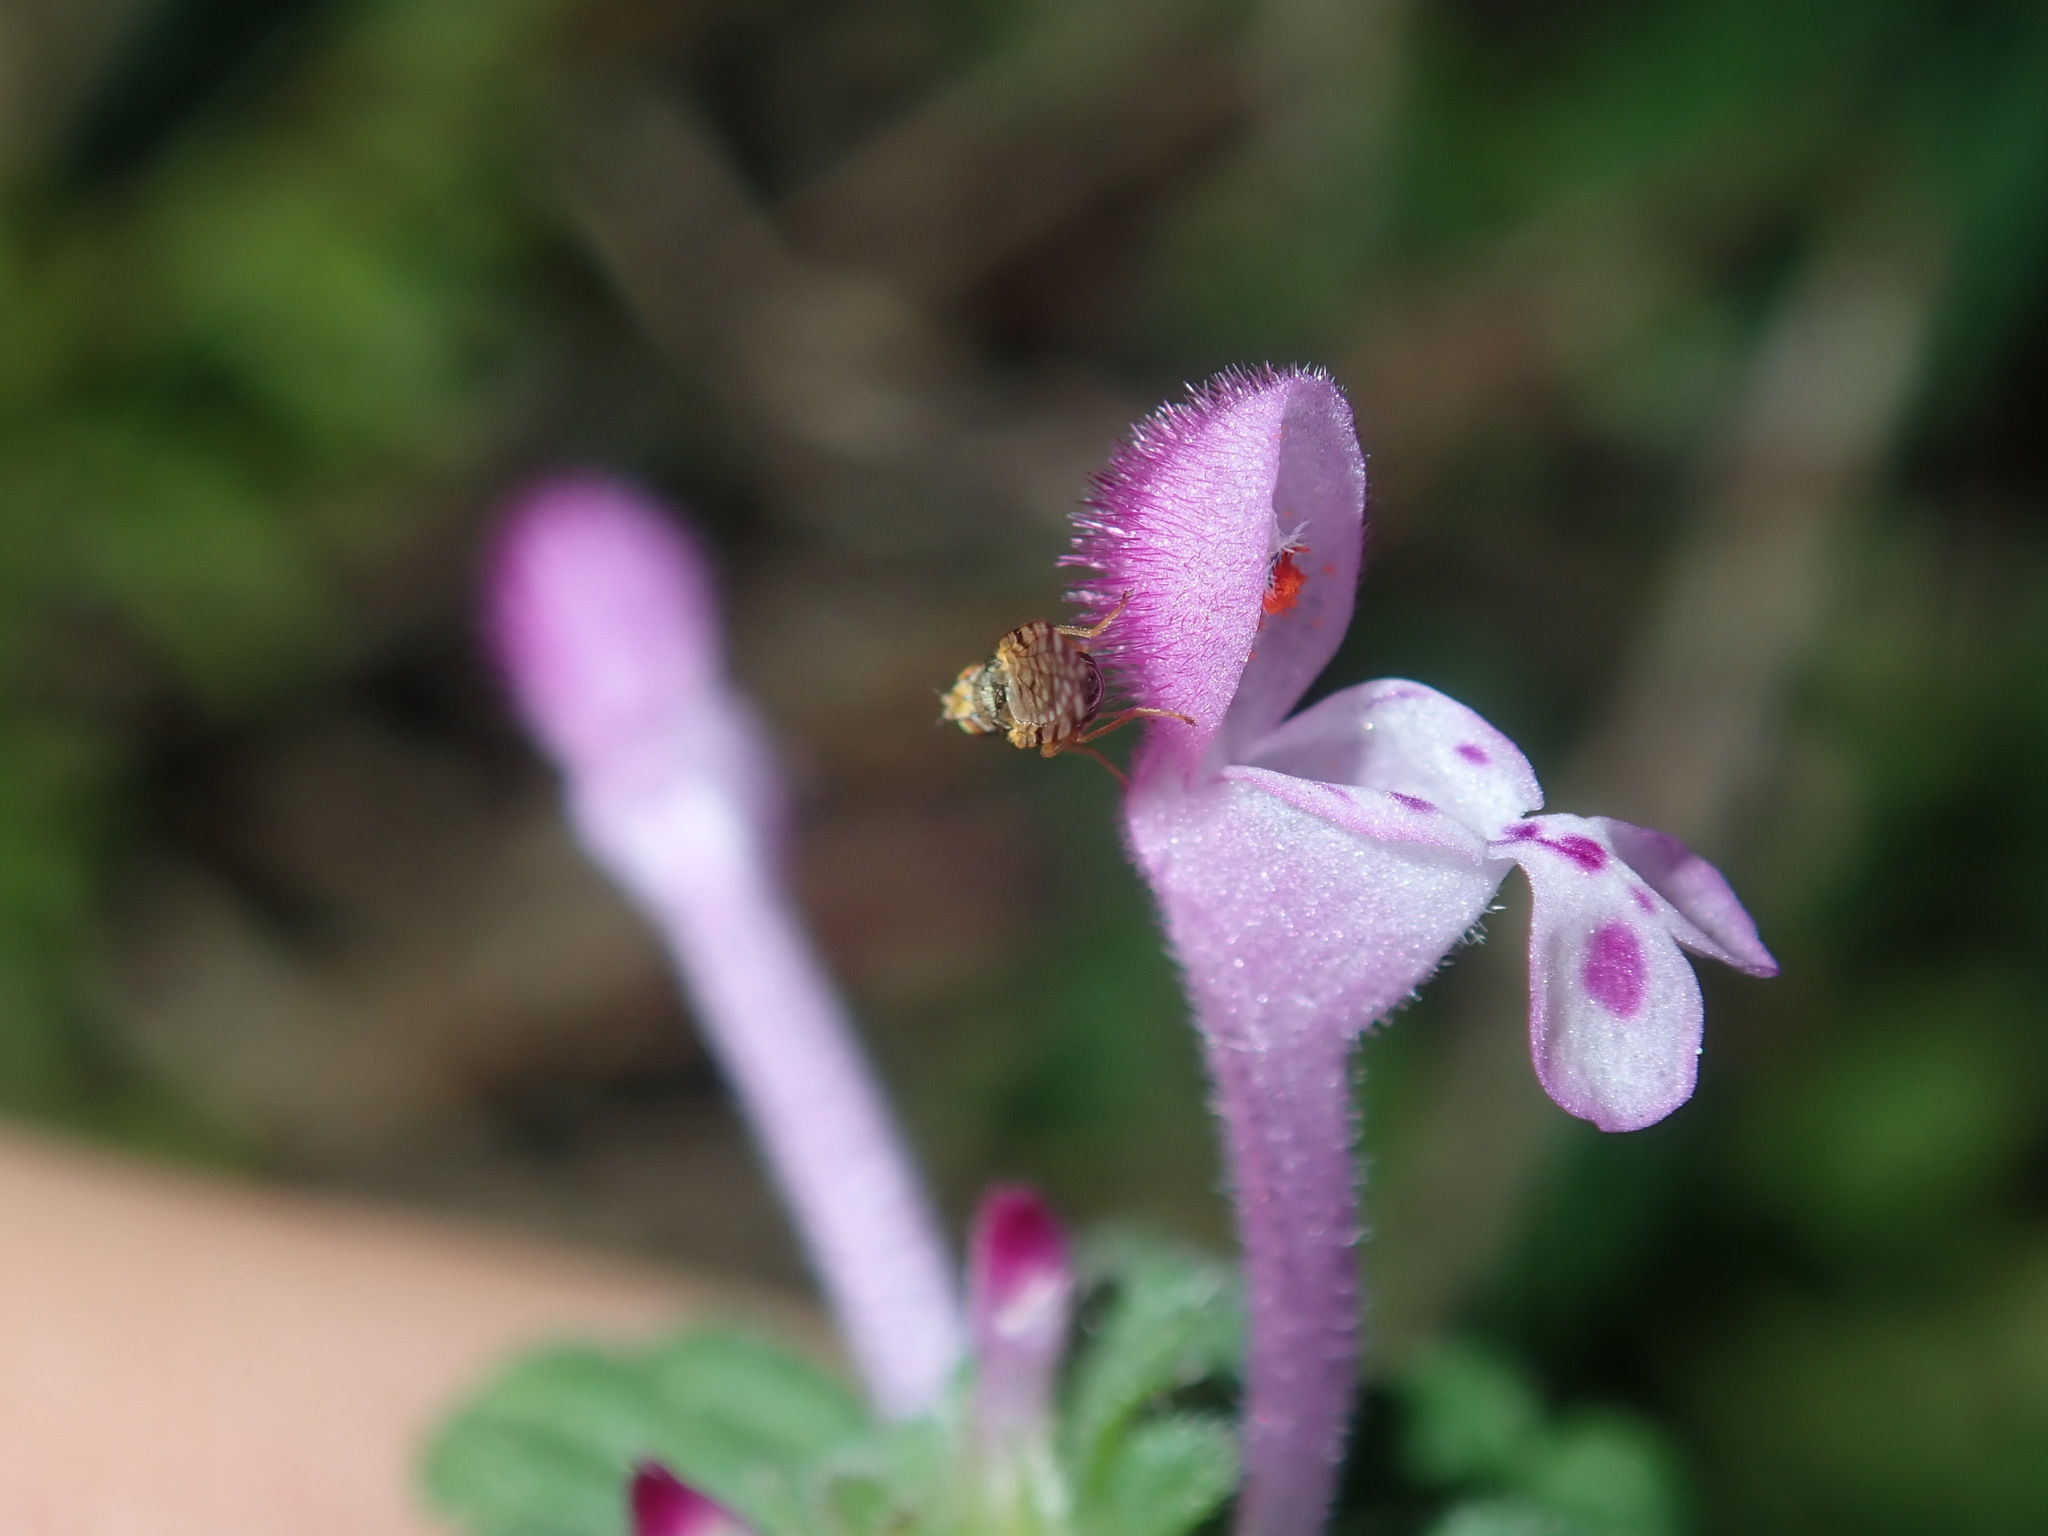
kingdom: Plantae
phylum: Tracheophyta
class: Magnoliopsida
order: Lamiales
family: Lamiaceae
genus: Lamium
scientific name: Lamium amplexicaule
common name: Henbit dead-nettle
